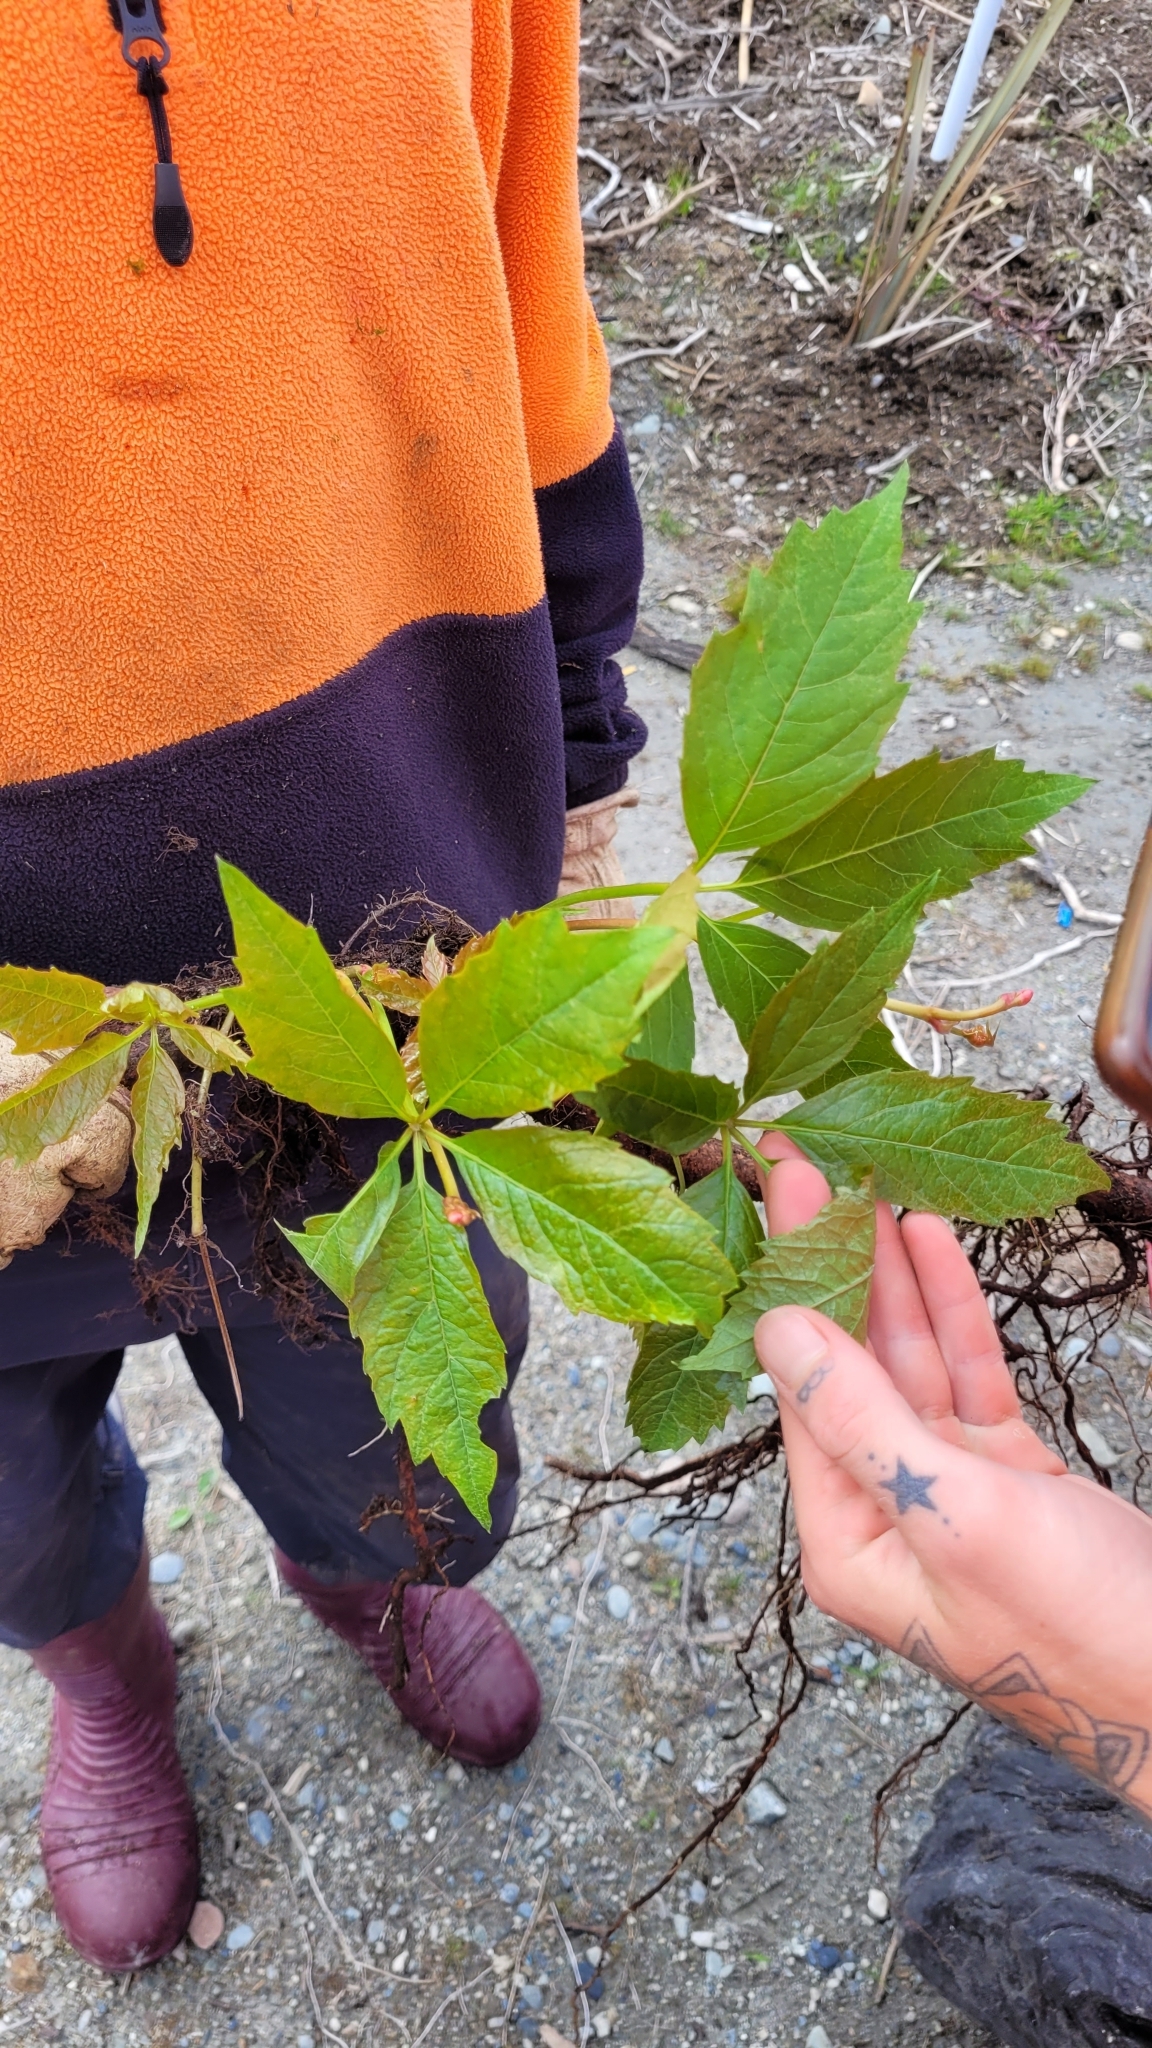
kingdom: Plantae
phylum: Tracheophyta
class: Magnoliopsida
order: Vitales
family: Vitaceae
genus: Parthenocissus
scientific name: Parthenocissus quinquefolia
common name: Virginia-creeper
